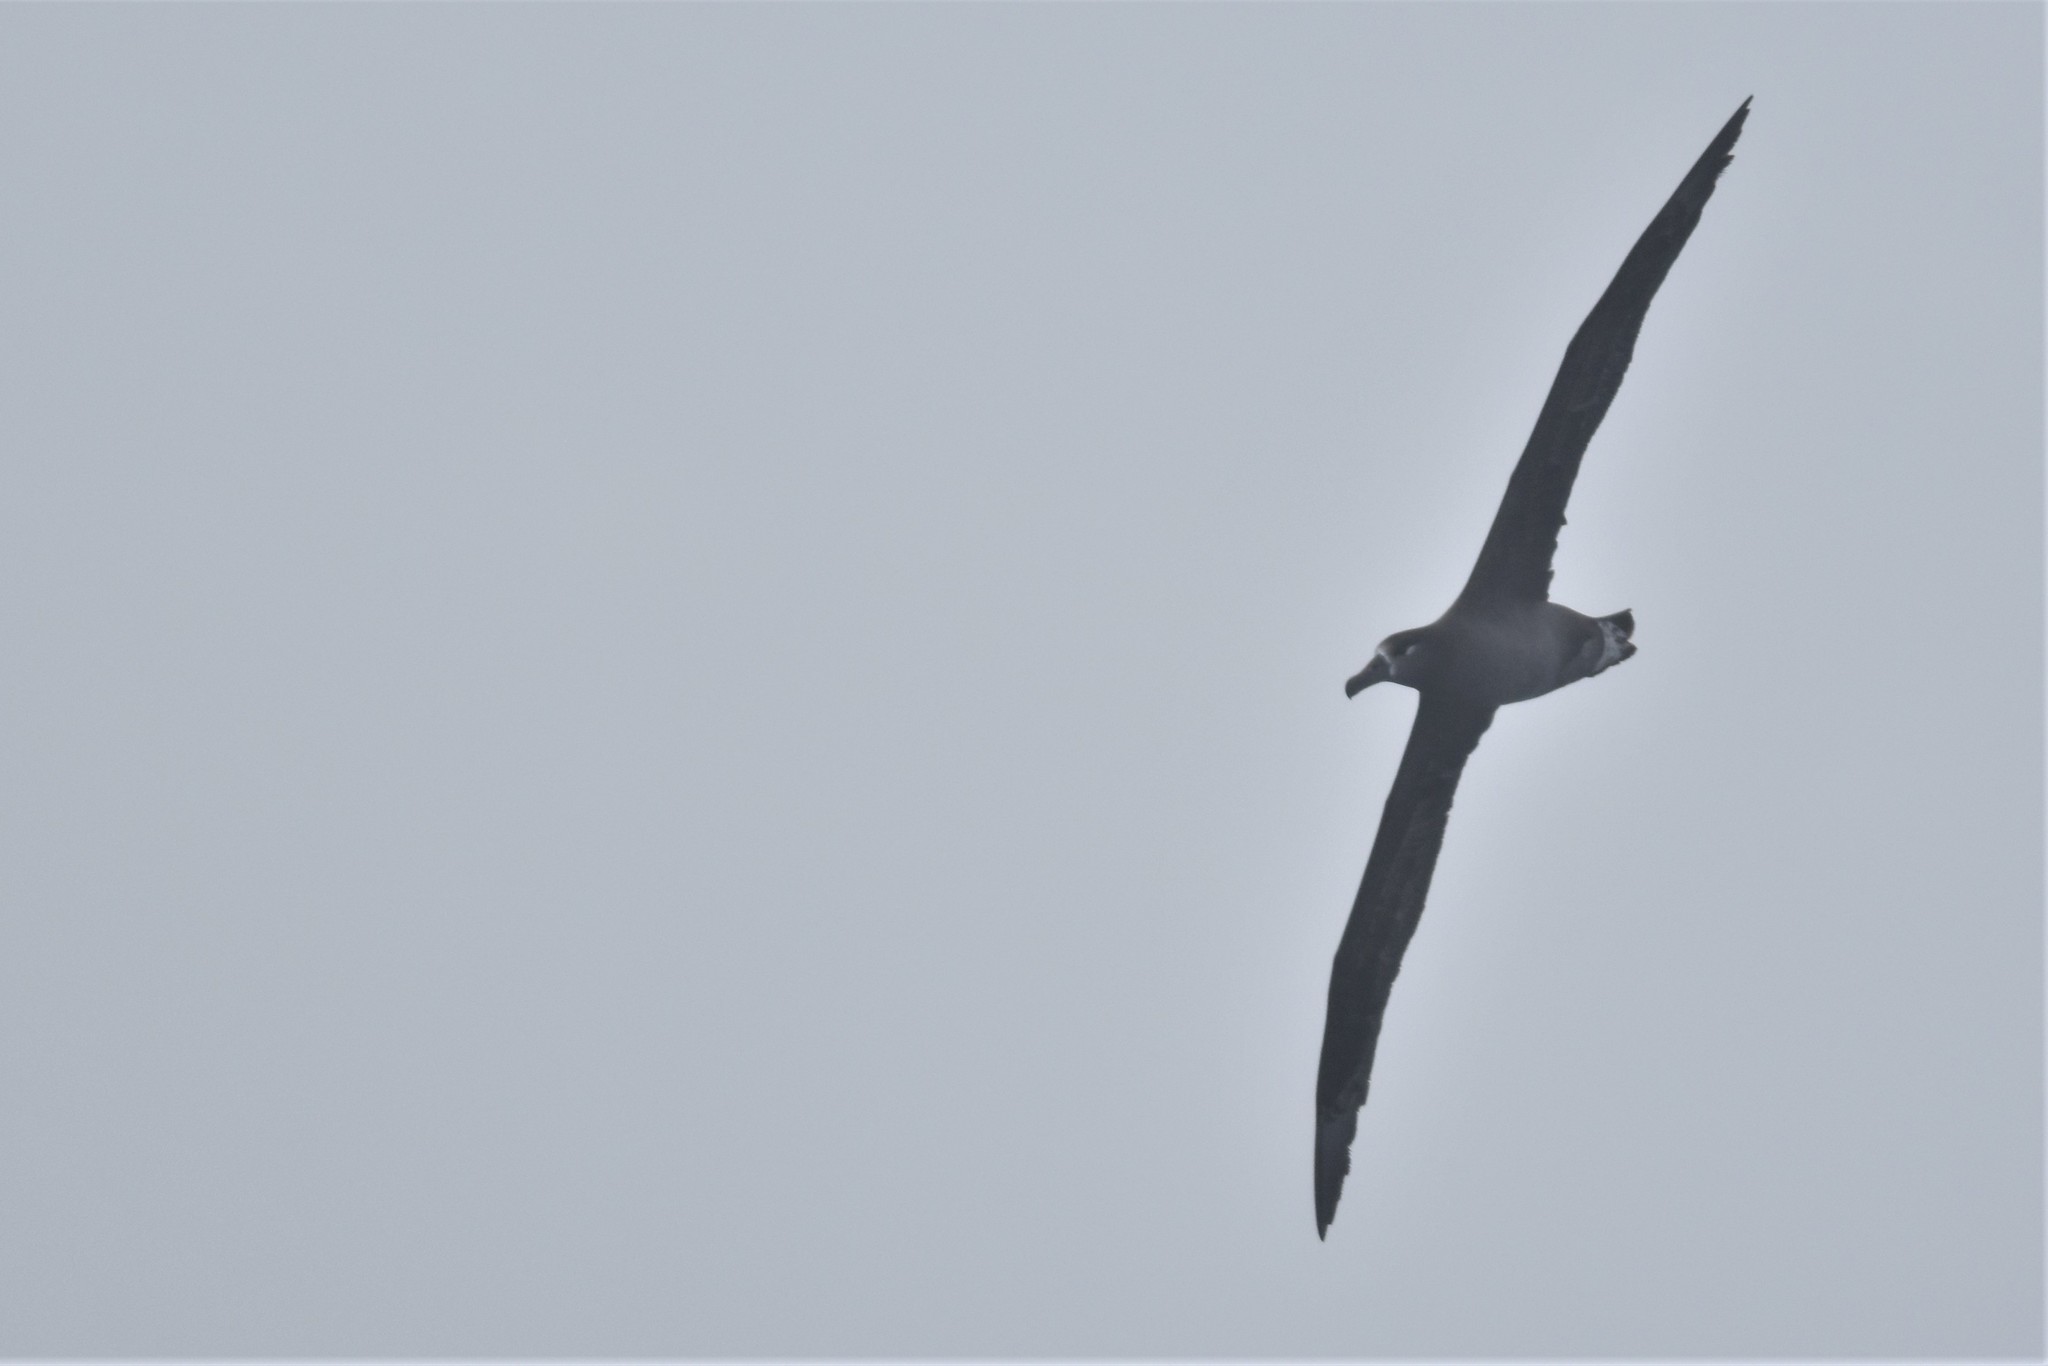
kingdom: Animalia
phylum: Chordata
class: Aves
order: Procellariiformes
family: Diomedeidae
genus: Phoebastria
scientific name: Phoebastria nigripes
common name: Black-footed albatross
